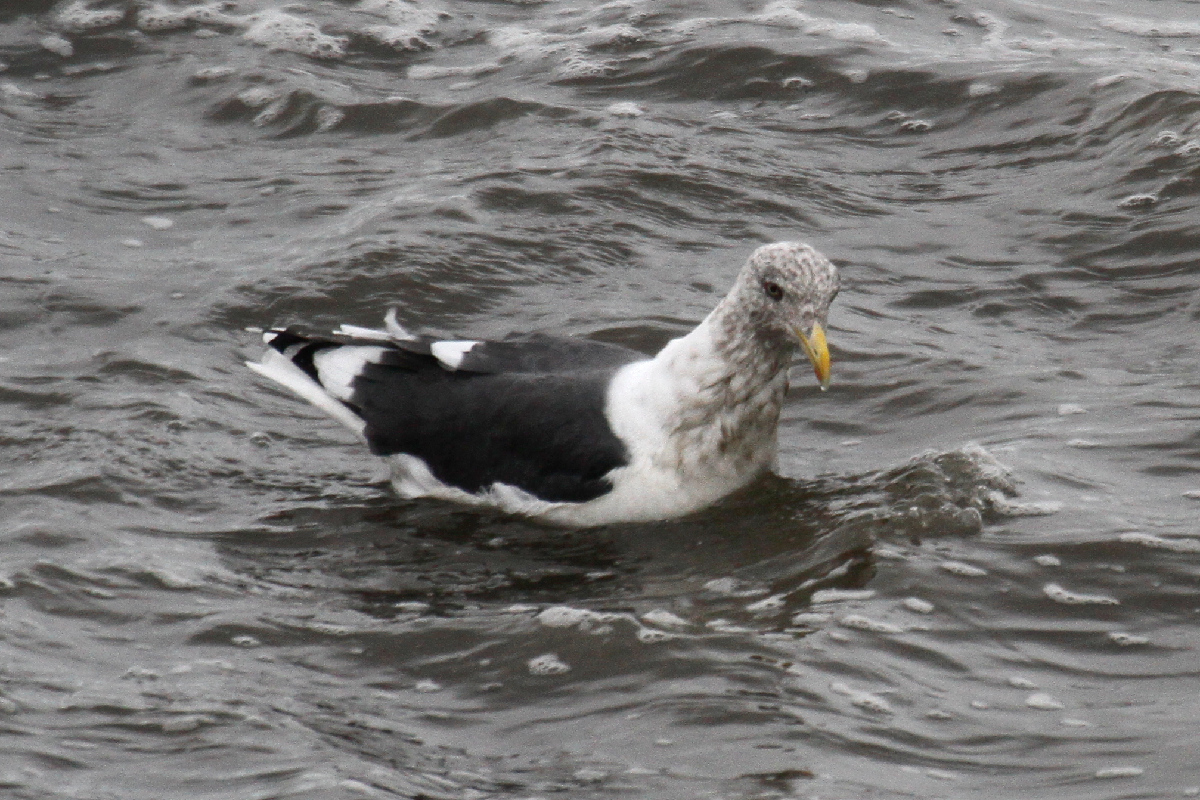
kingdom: Animalia
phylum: Chordata
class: Aves
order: Charadriiformes
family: Laridae
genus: Larus
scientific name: Larus schistisagus
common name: Slaty-backed gull
